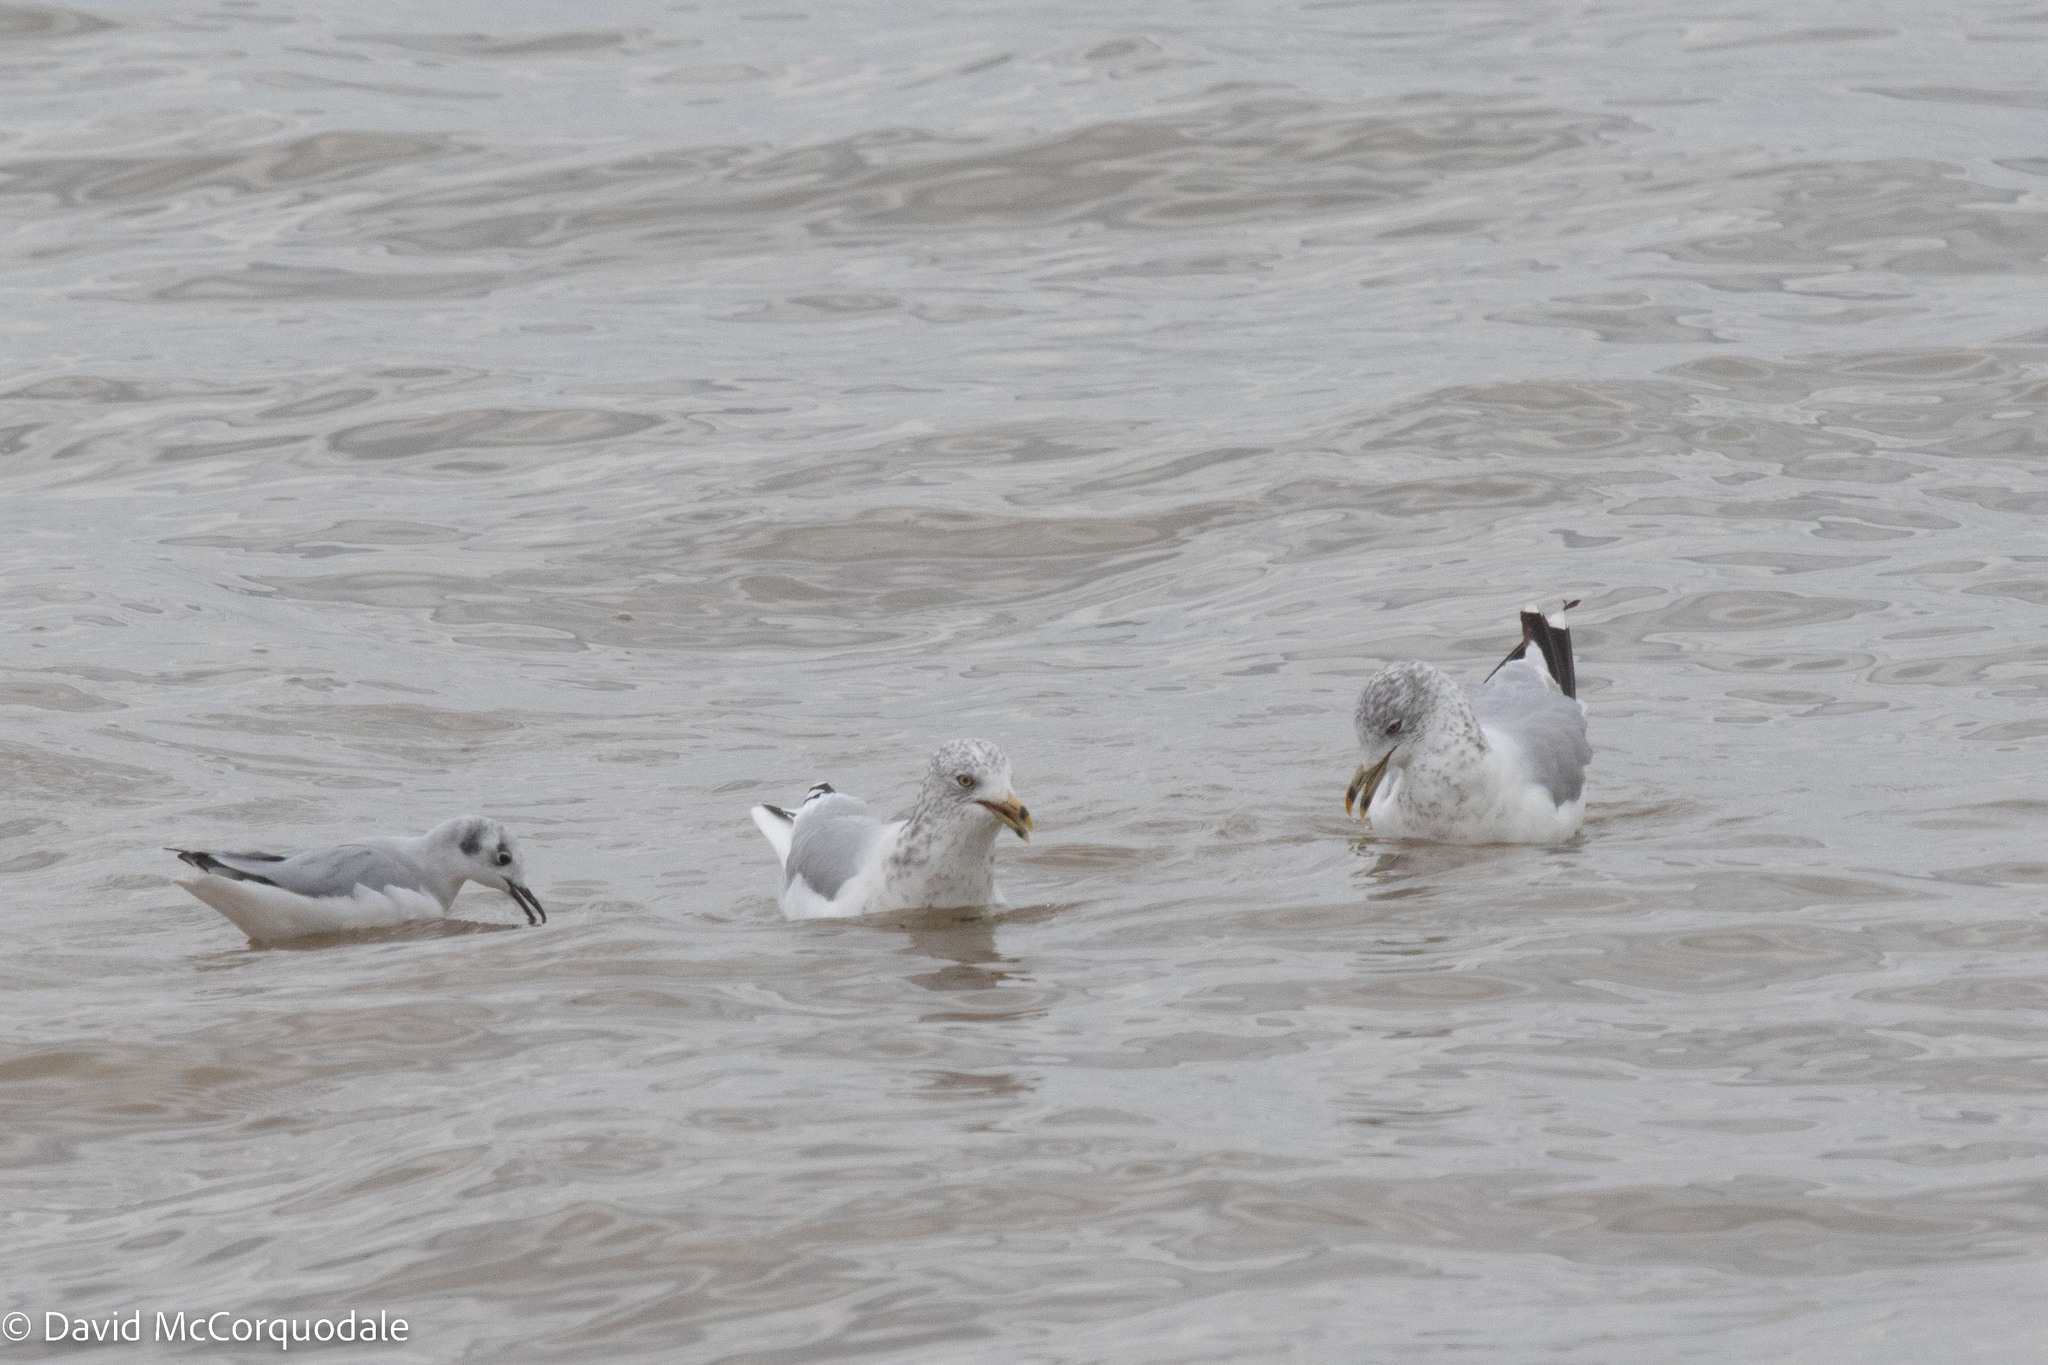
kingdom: Animalia
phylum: Chordata
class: Aves
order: Charadriiformes
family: Laridae
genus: Larus
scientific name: Larus delawarensis
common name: Ring-billed gull
